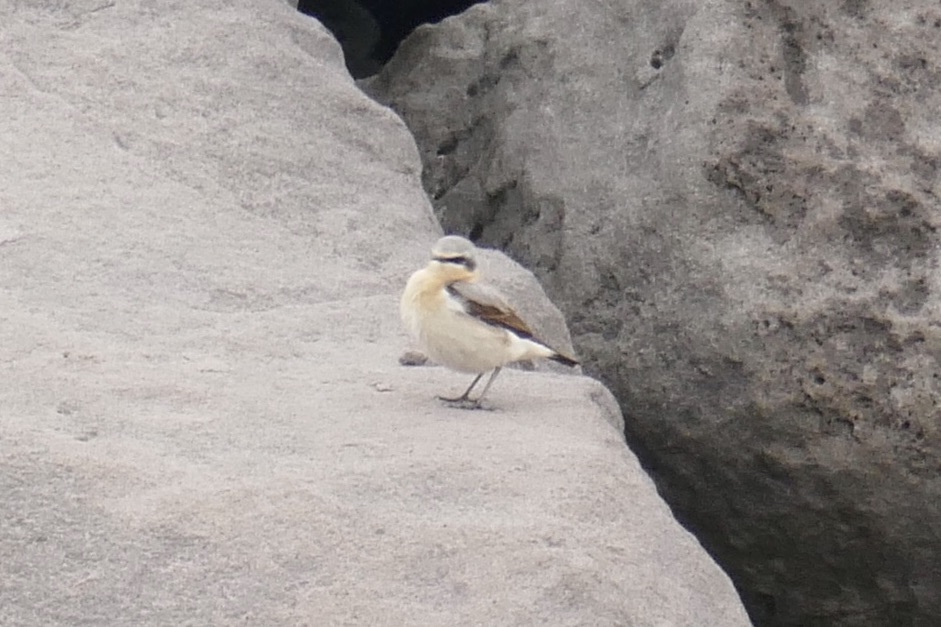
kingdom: Animalia
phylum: Chordata
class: Aves
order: Passeriformes
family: Muscicapidae
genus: Oenanthe
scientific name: Oenanthe oenanthe
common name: Northern wheatear
